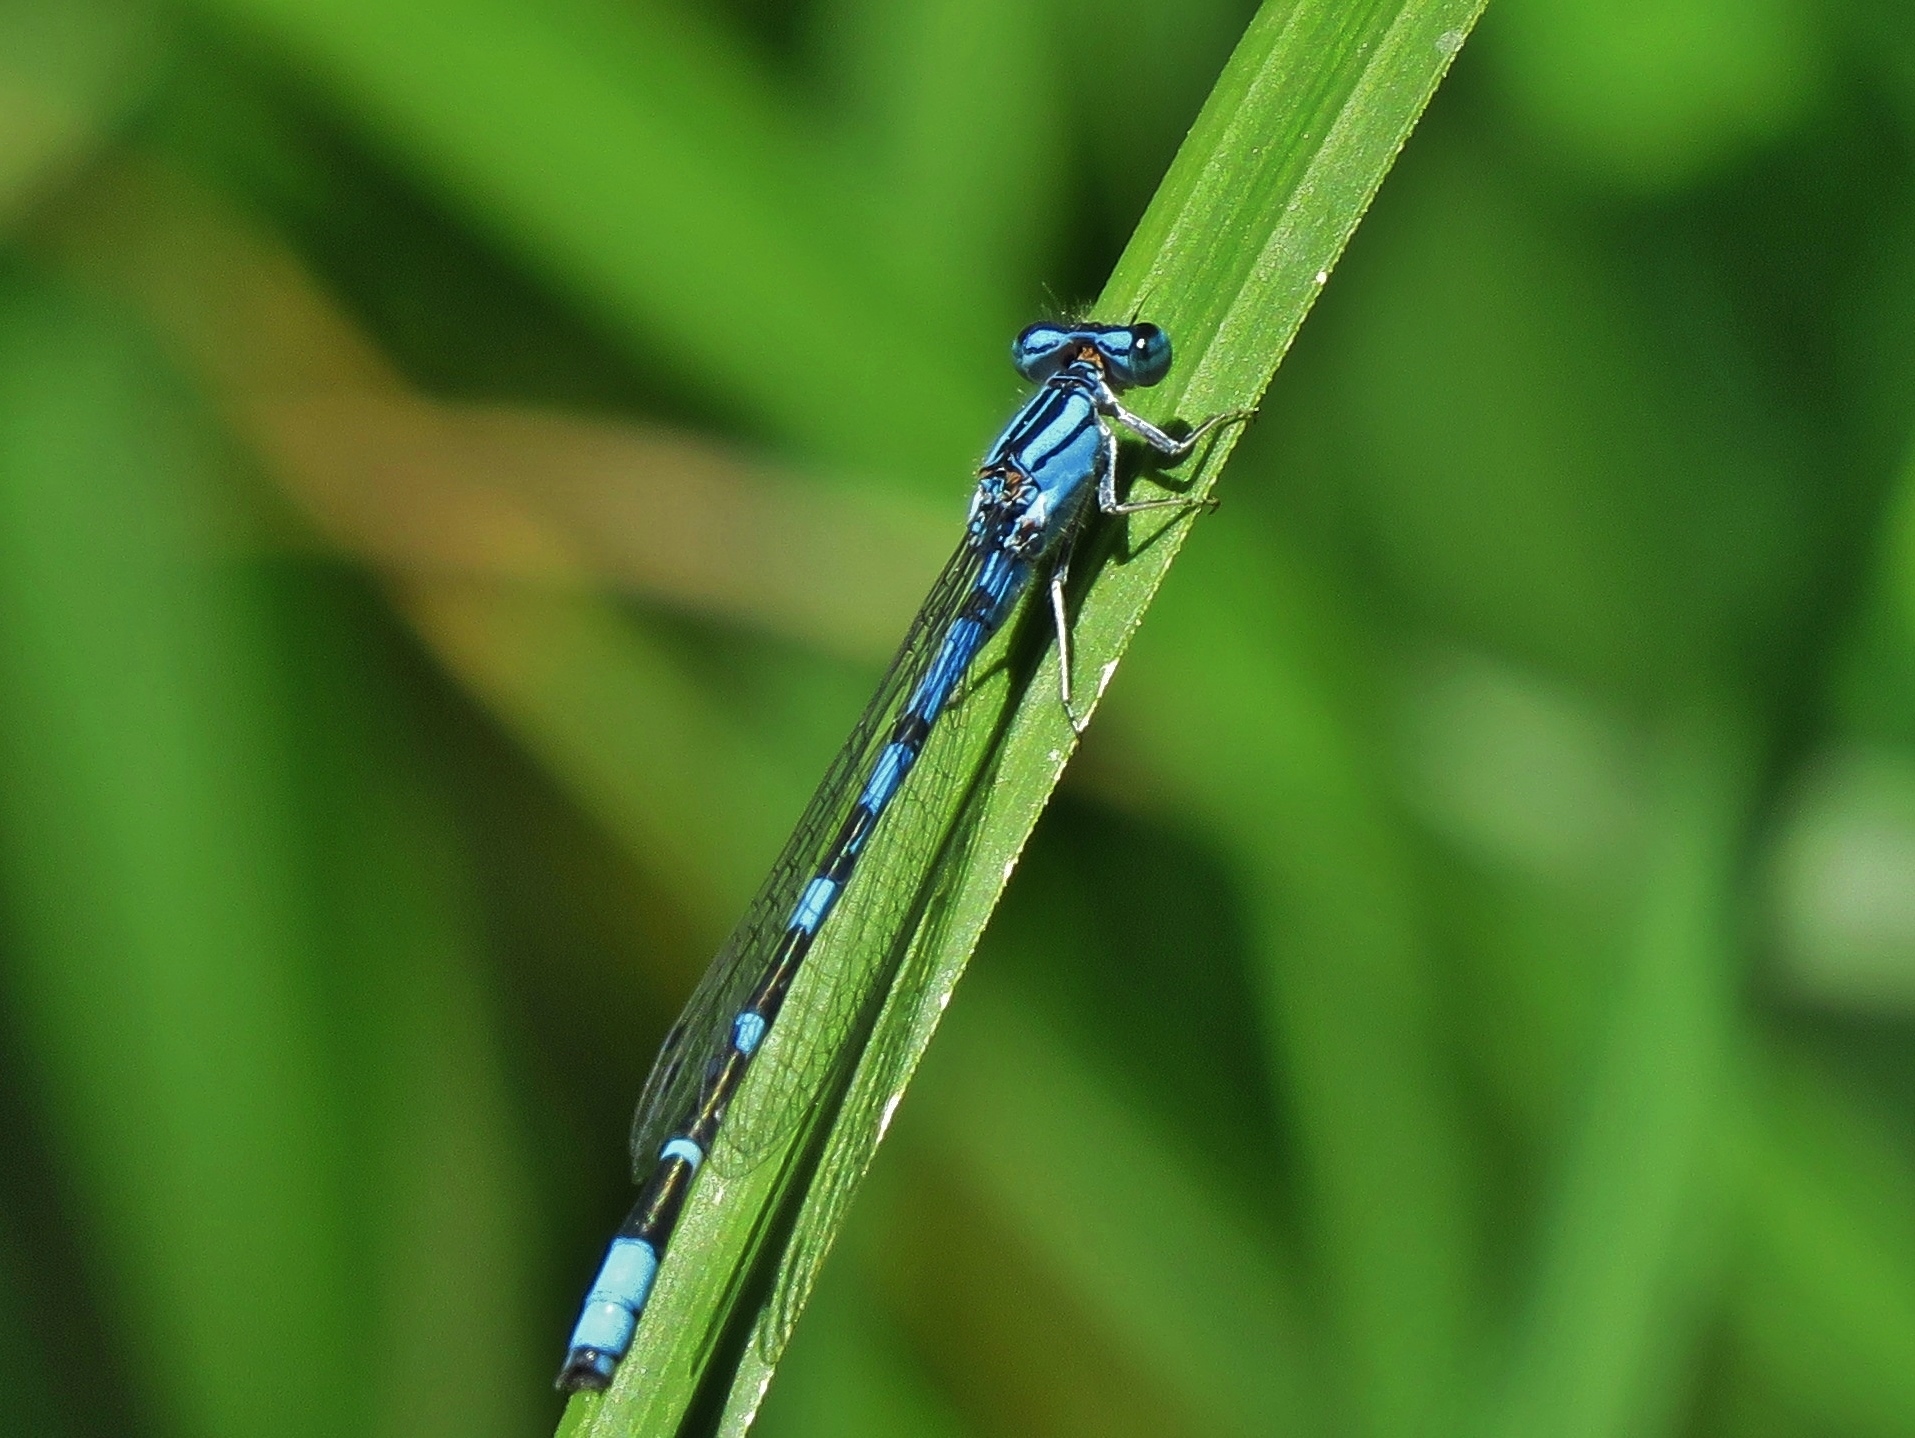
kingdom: Animalia
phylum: Arthropoda
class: Insecta
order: Odonata
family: Coenagrionidae
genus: Enallagma
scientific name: Enallagma praevarum
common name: Arroyo bluet
